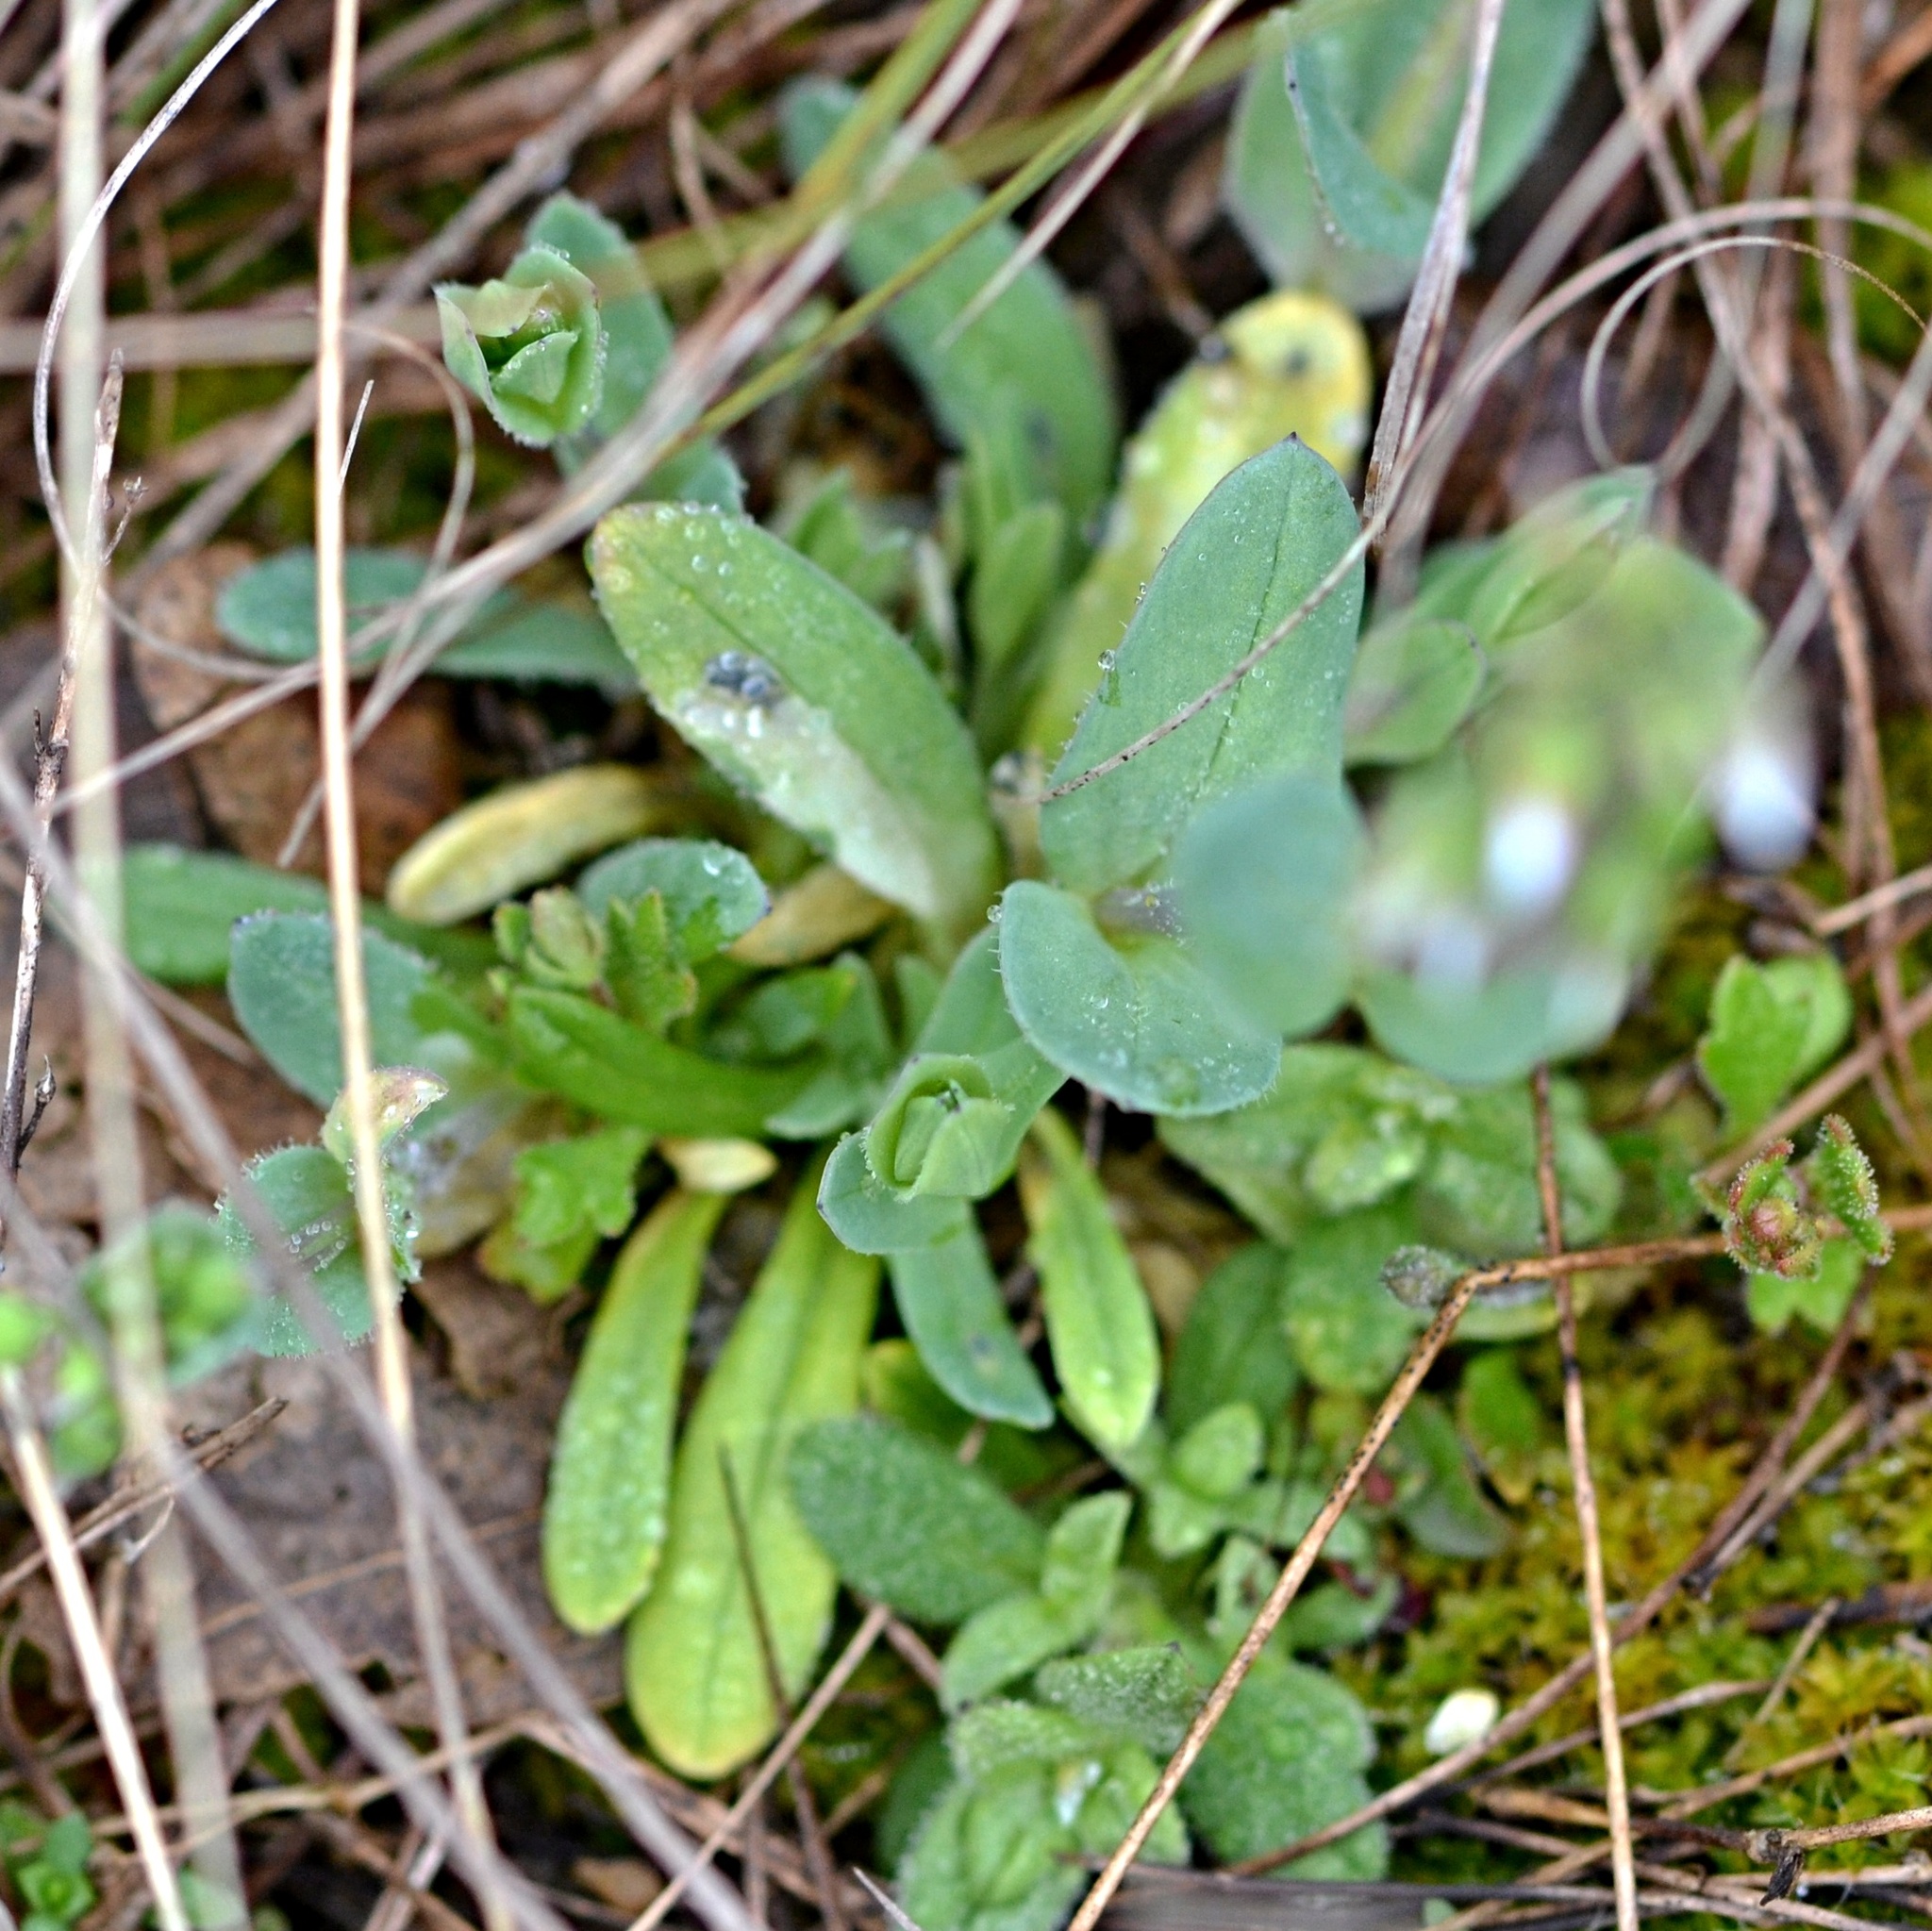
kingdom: Plantae
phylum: Tracheophyta
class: Magnoliopsida
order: Caryophyllales
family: Caryophyllaceae
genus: Holosteum
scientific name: Holosteum umbellatum
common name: Jagged chickweed
